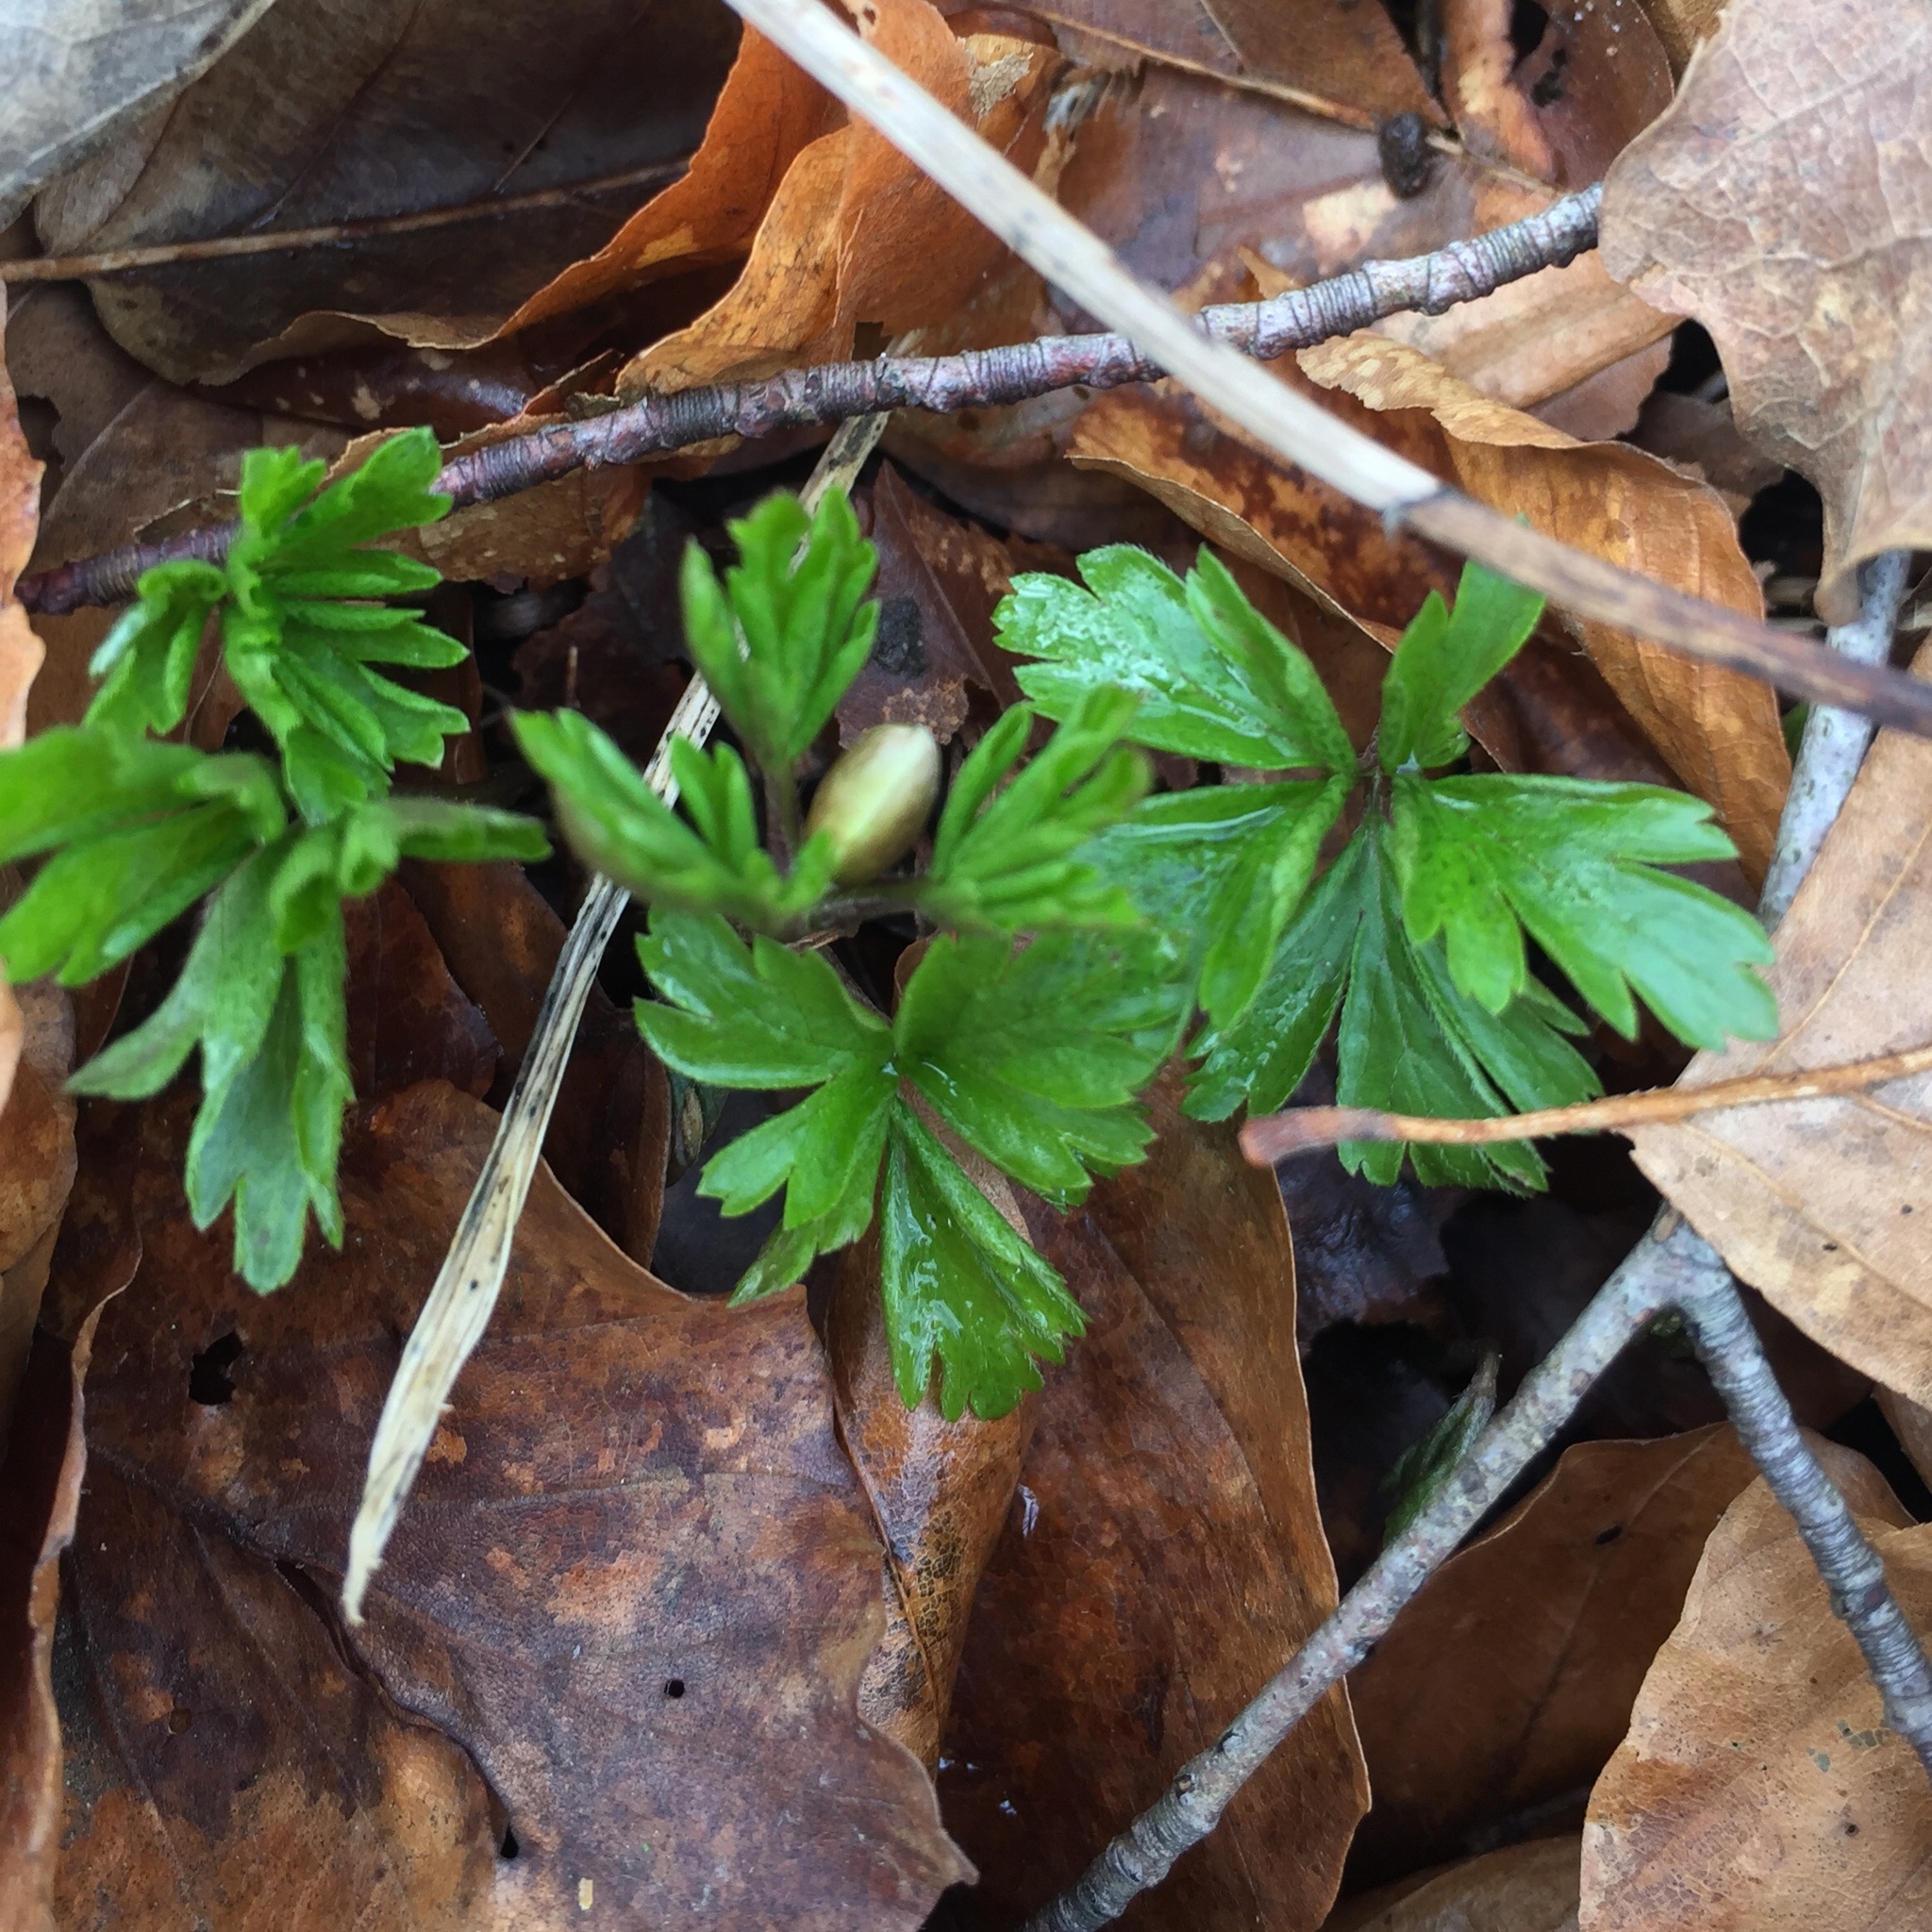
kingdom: Plantae
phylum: Tracheophyta
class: Magnoliopsida
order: Ranunculales
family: Ranunculaceae
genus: Anemone
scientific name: Anemone nemorosa
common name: Wood anemone
